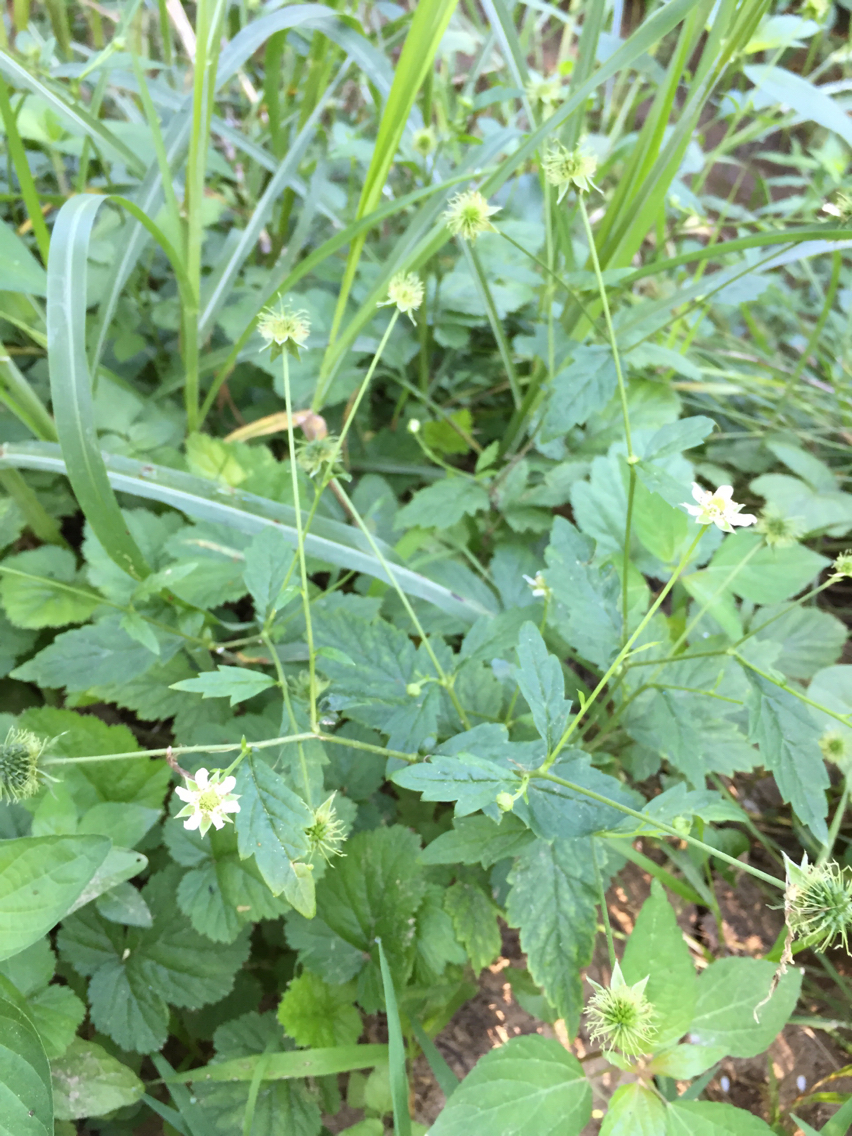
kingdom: Plantae
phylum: Tracheophyta
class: Magnoliopsida
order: Rosales
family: Rosaceae
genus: Geum
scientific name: Geum canadense
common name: White avens
